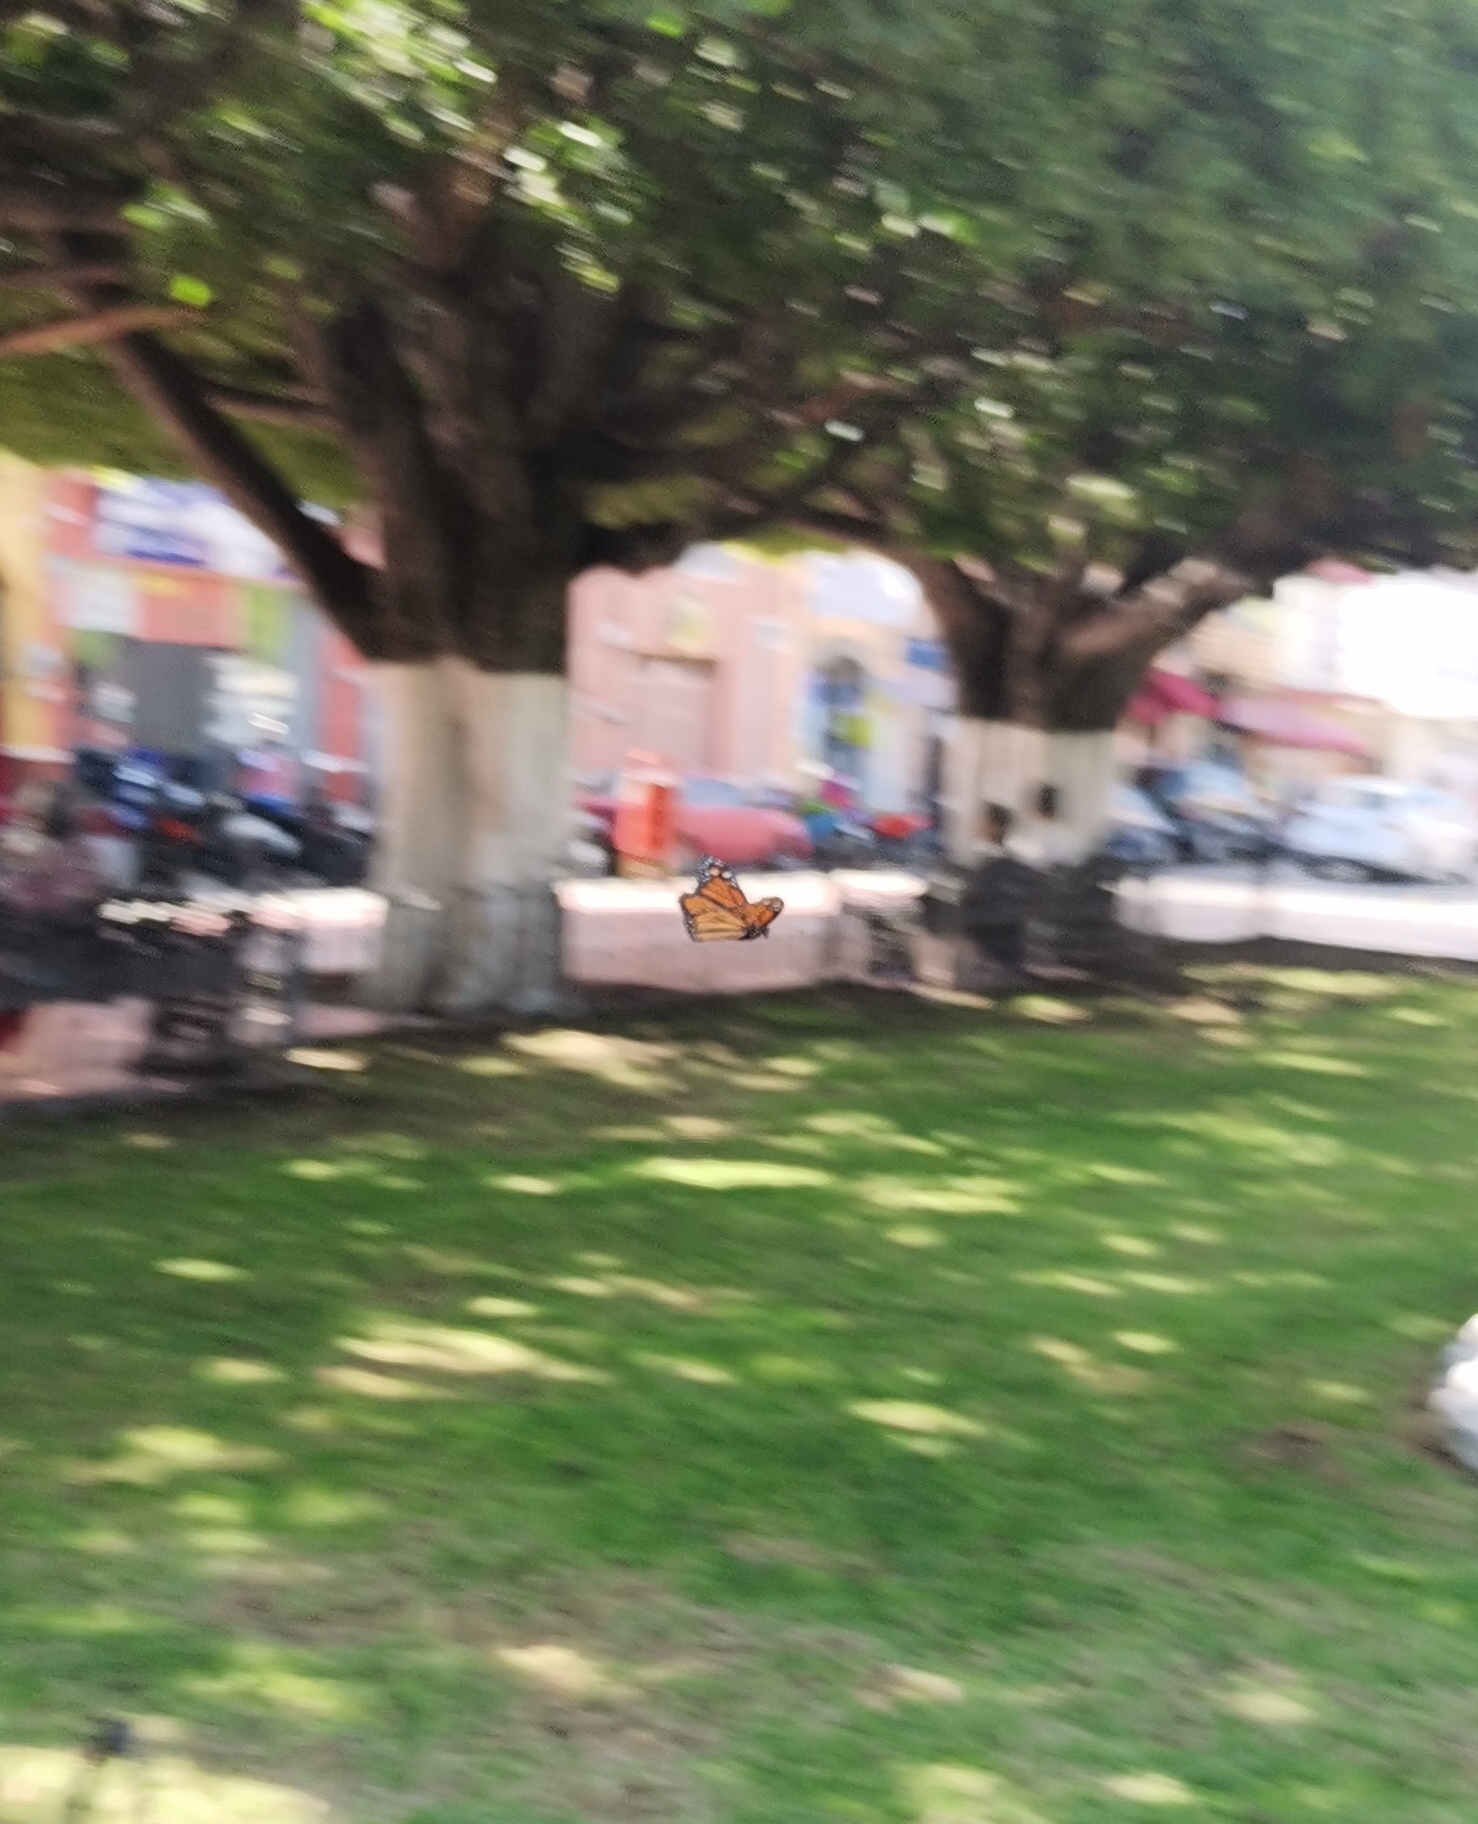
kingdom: Animalia
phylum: Arthropoda
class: Insecta
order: Lepidoptera
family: Nymphalidae
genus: Danaus
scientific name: Danaus plexippus
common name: Monarch
